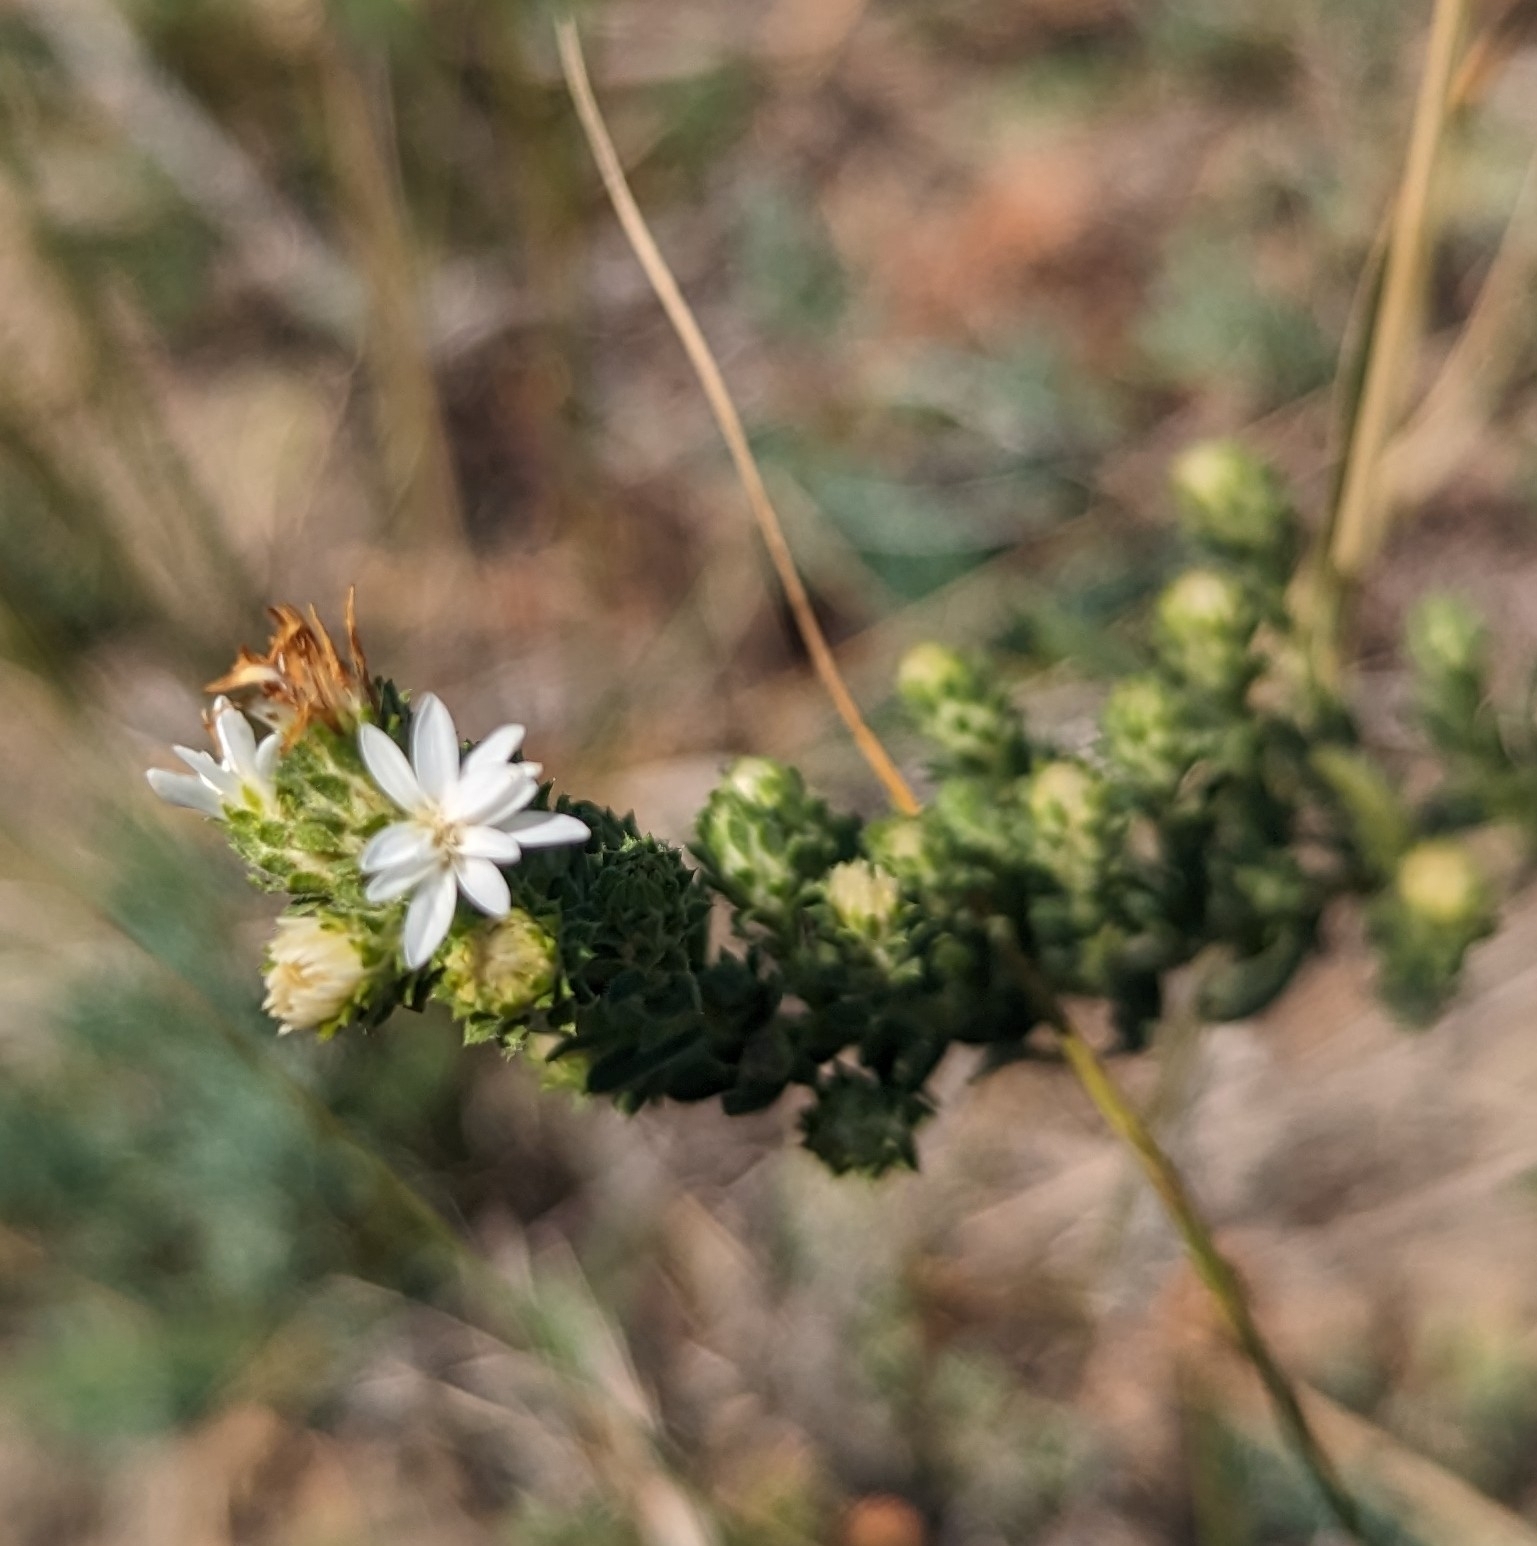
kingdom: Plantae
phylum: Tracheophyta
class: Magnoliopsida
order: Asterales
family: Asteraceae
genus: Symphyotrichum
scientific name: Symphyotrichum ericoides
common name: Heath aster
